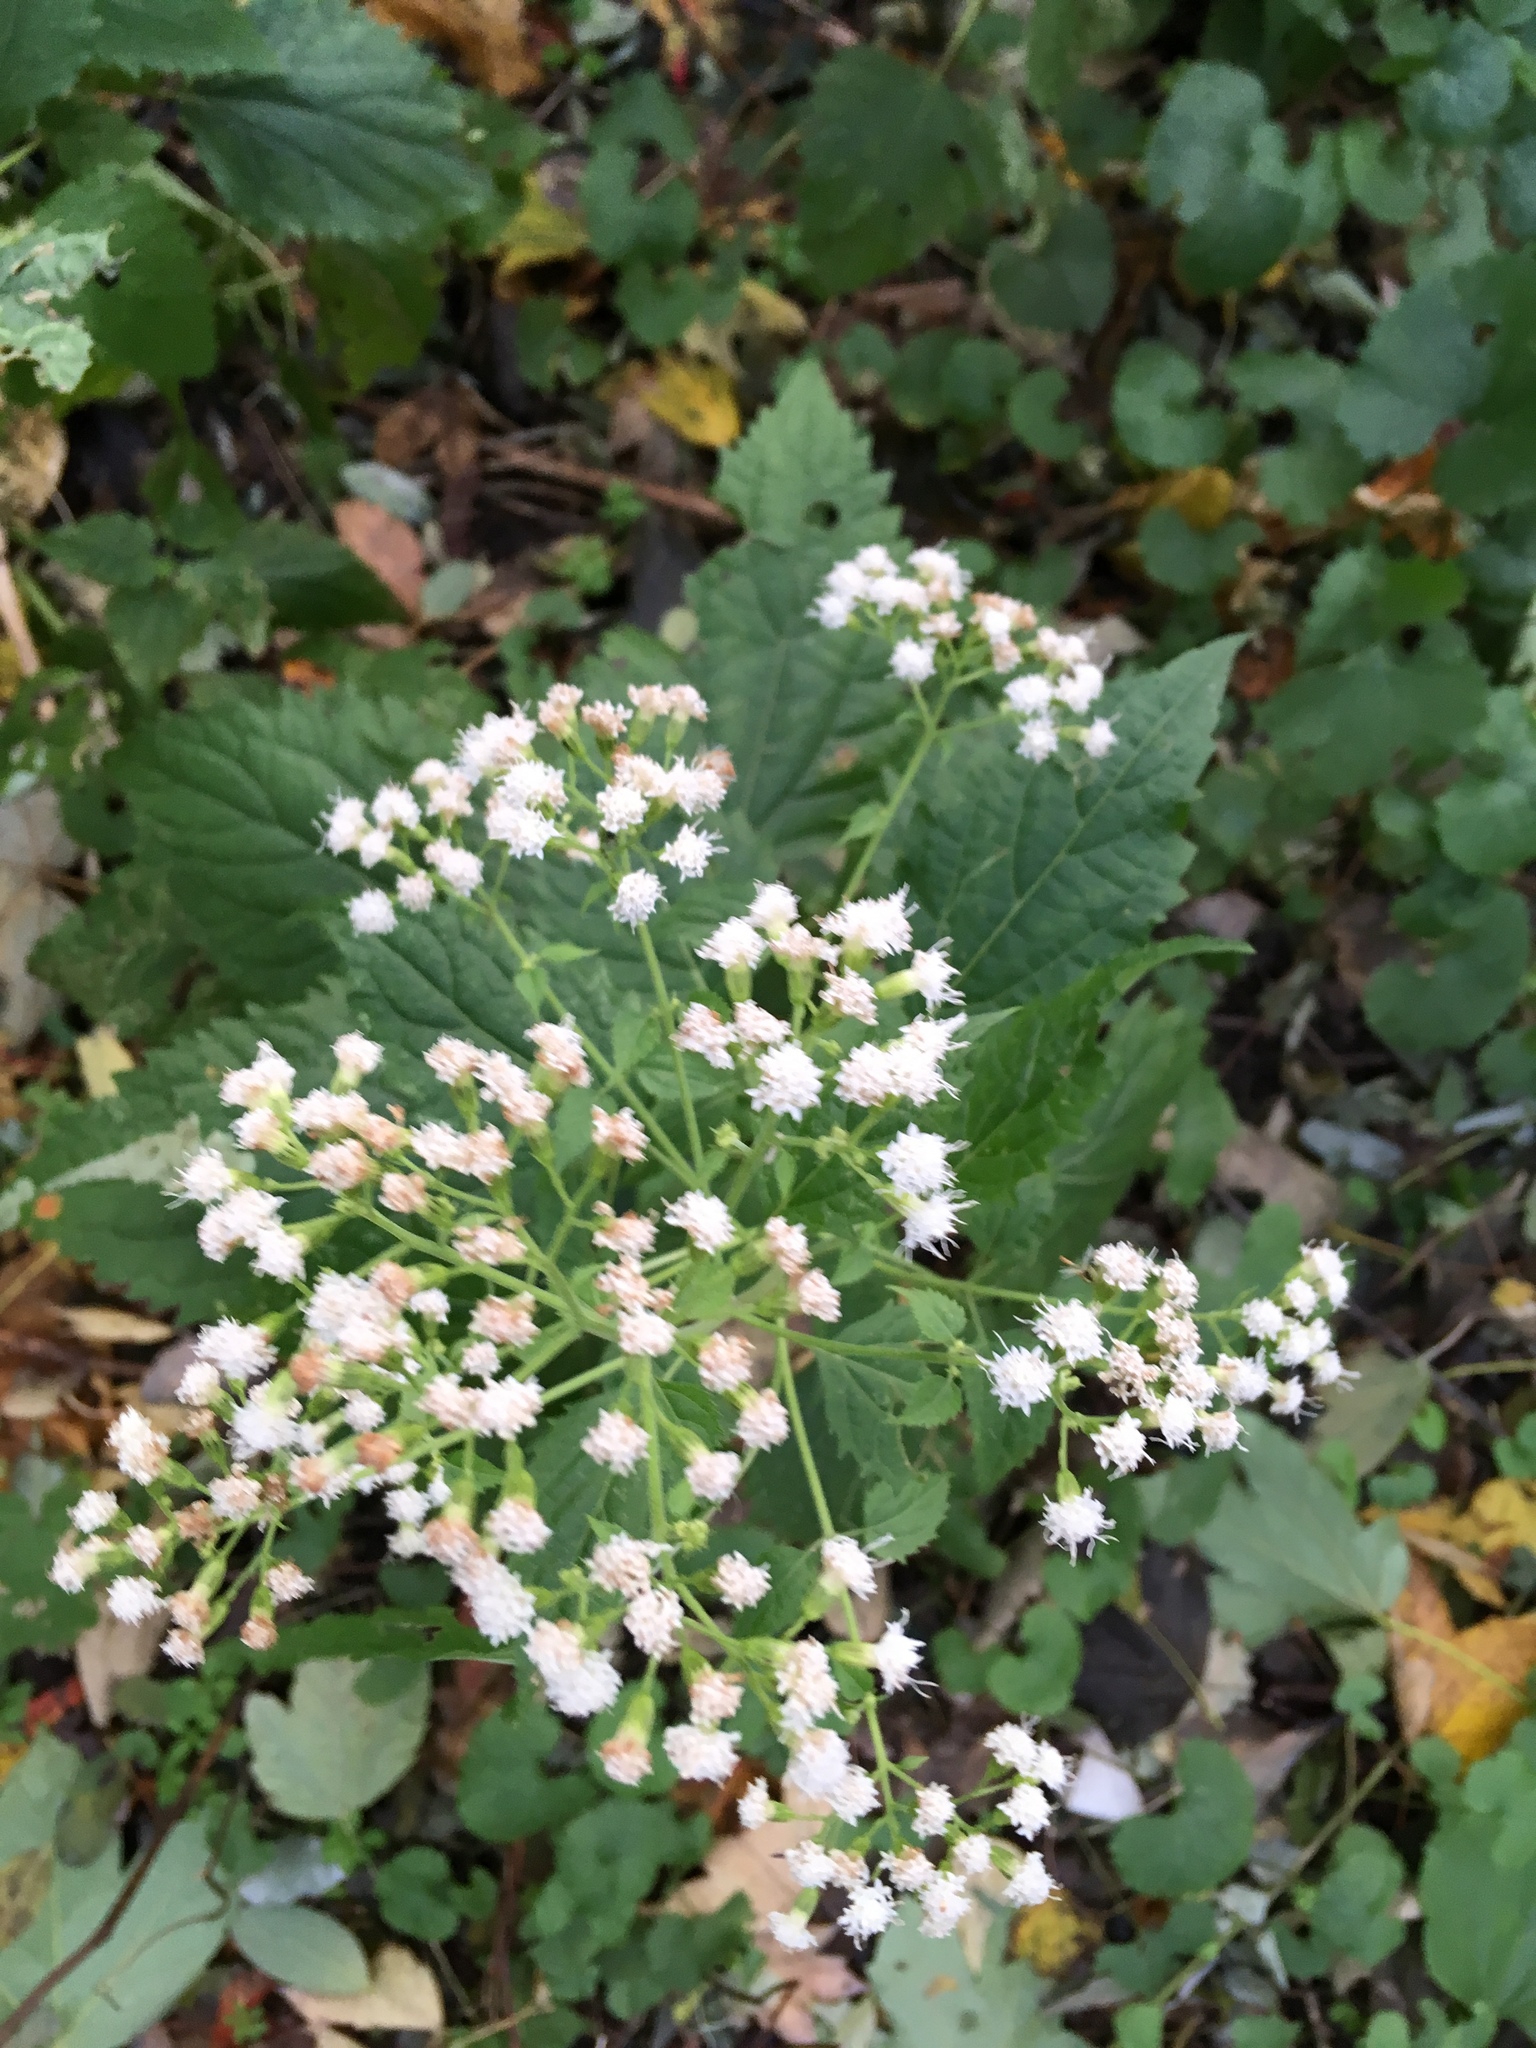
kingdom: Plantae
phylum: Tracheophyta
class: Magnoliopsida
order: Asterales
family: Asteraceae
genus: Ageratina
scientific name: Ageratina altissima
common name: White snakeroot
